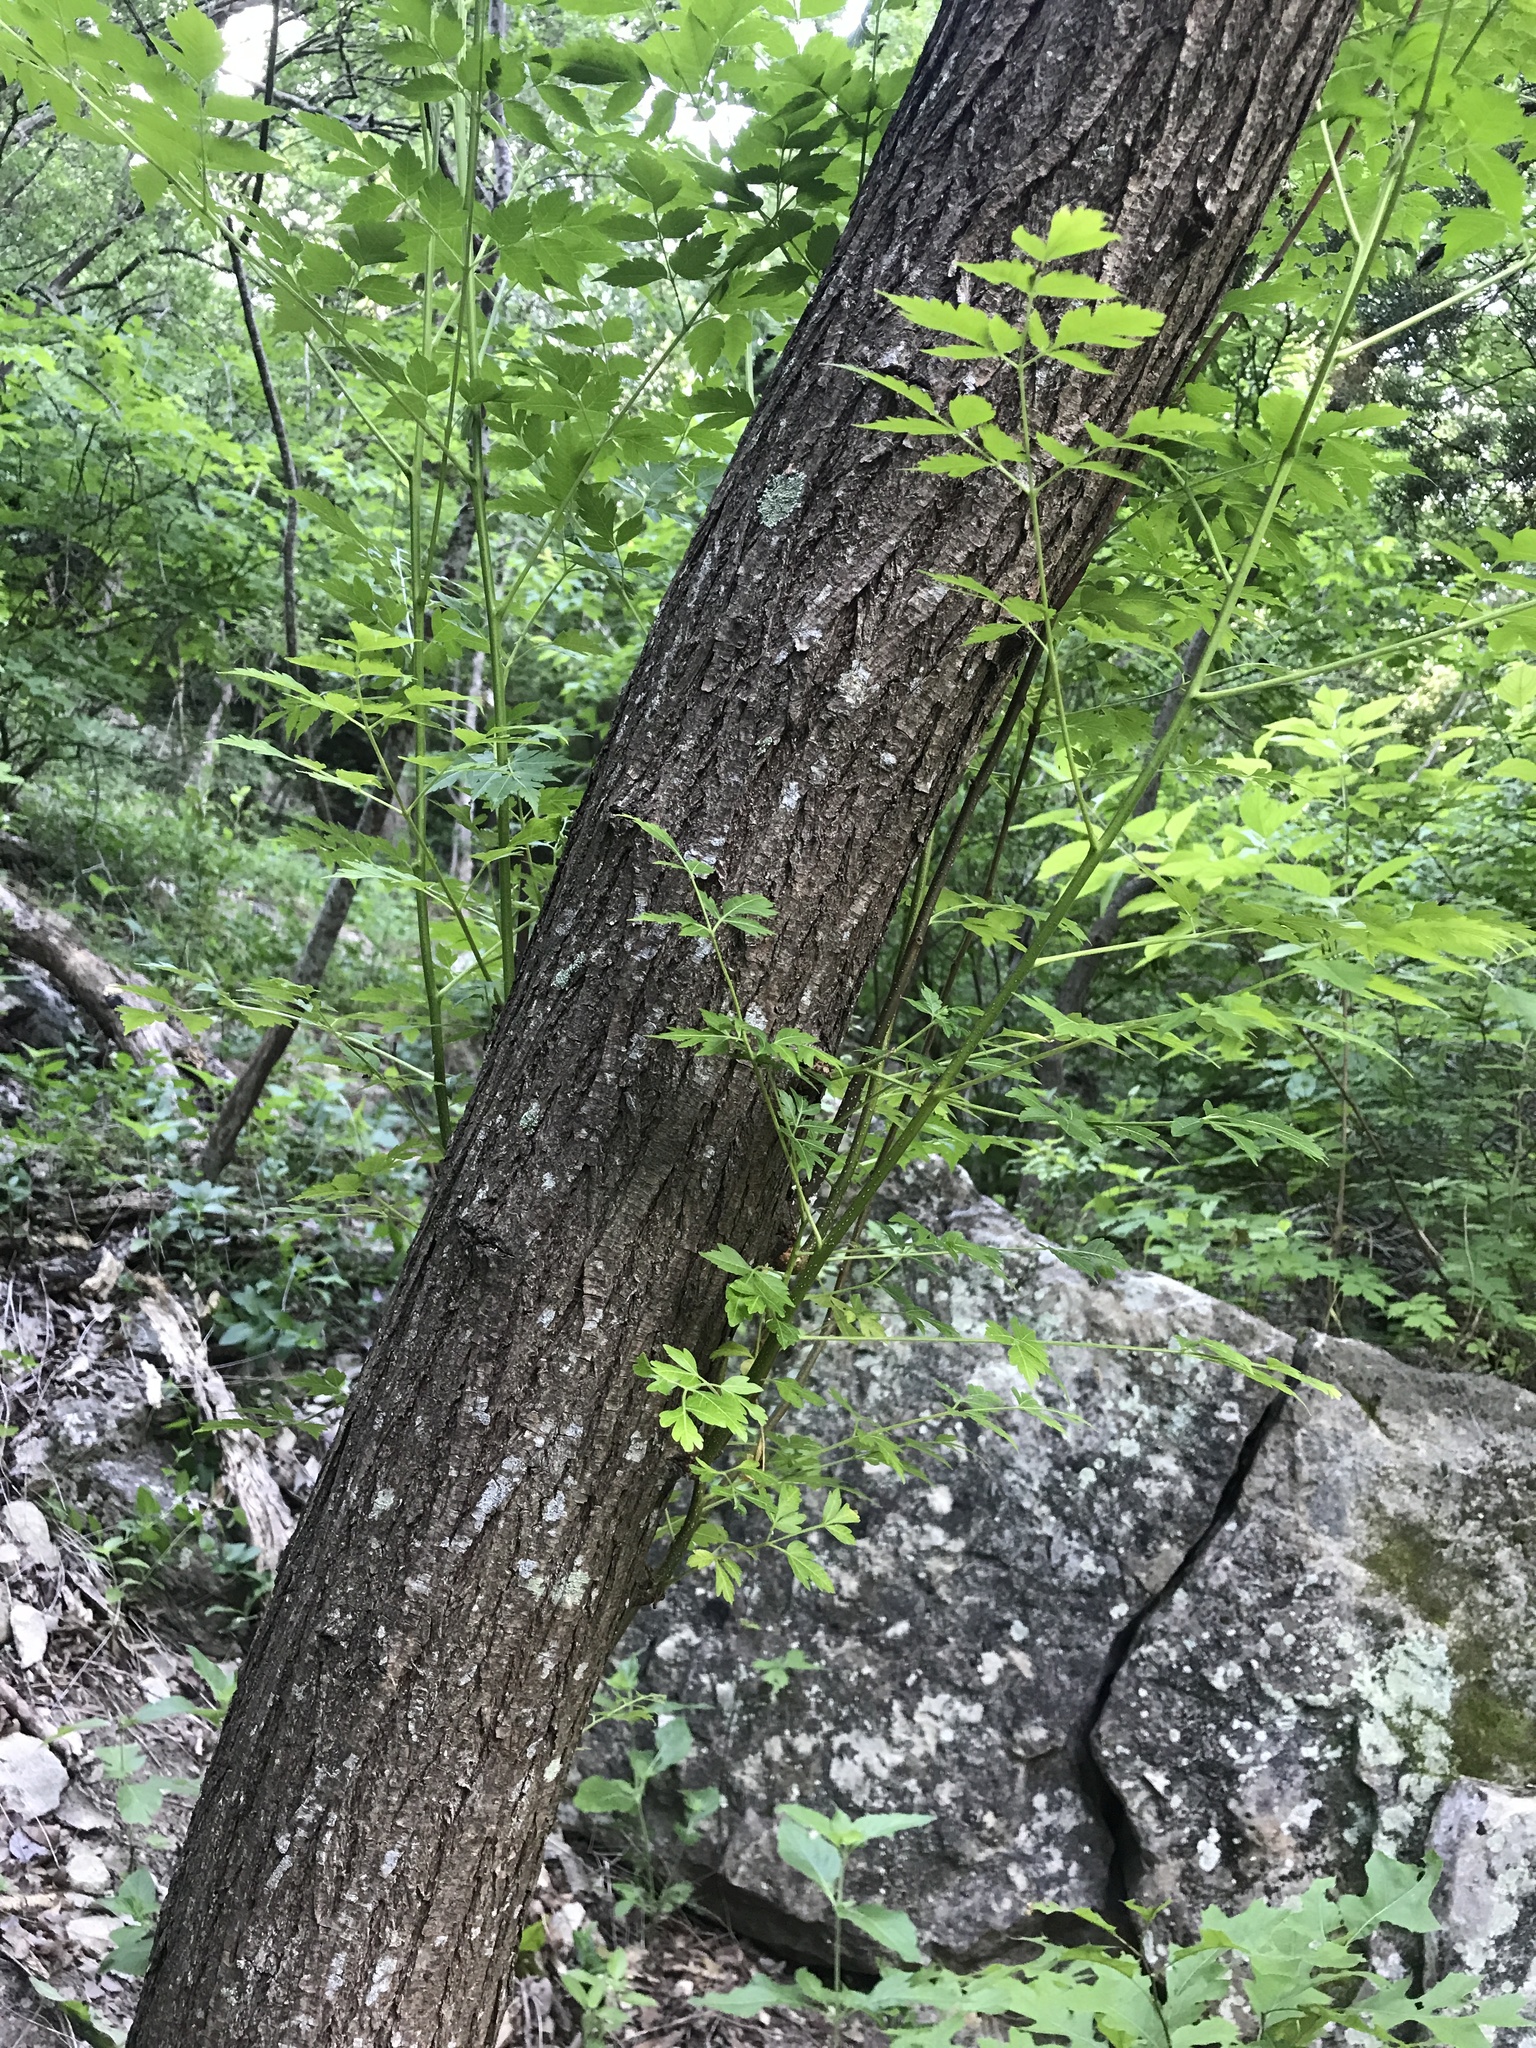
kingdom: Plantae
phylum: Tracheophyta
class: Magnoliopsida
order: Sapindales
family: Meliaceae
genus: Melia
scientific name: Melia azedarach
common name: Chinaberrytree
